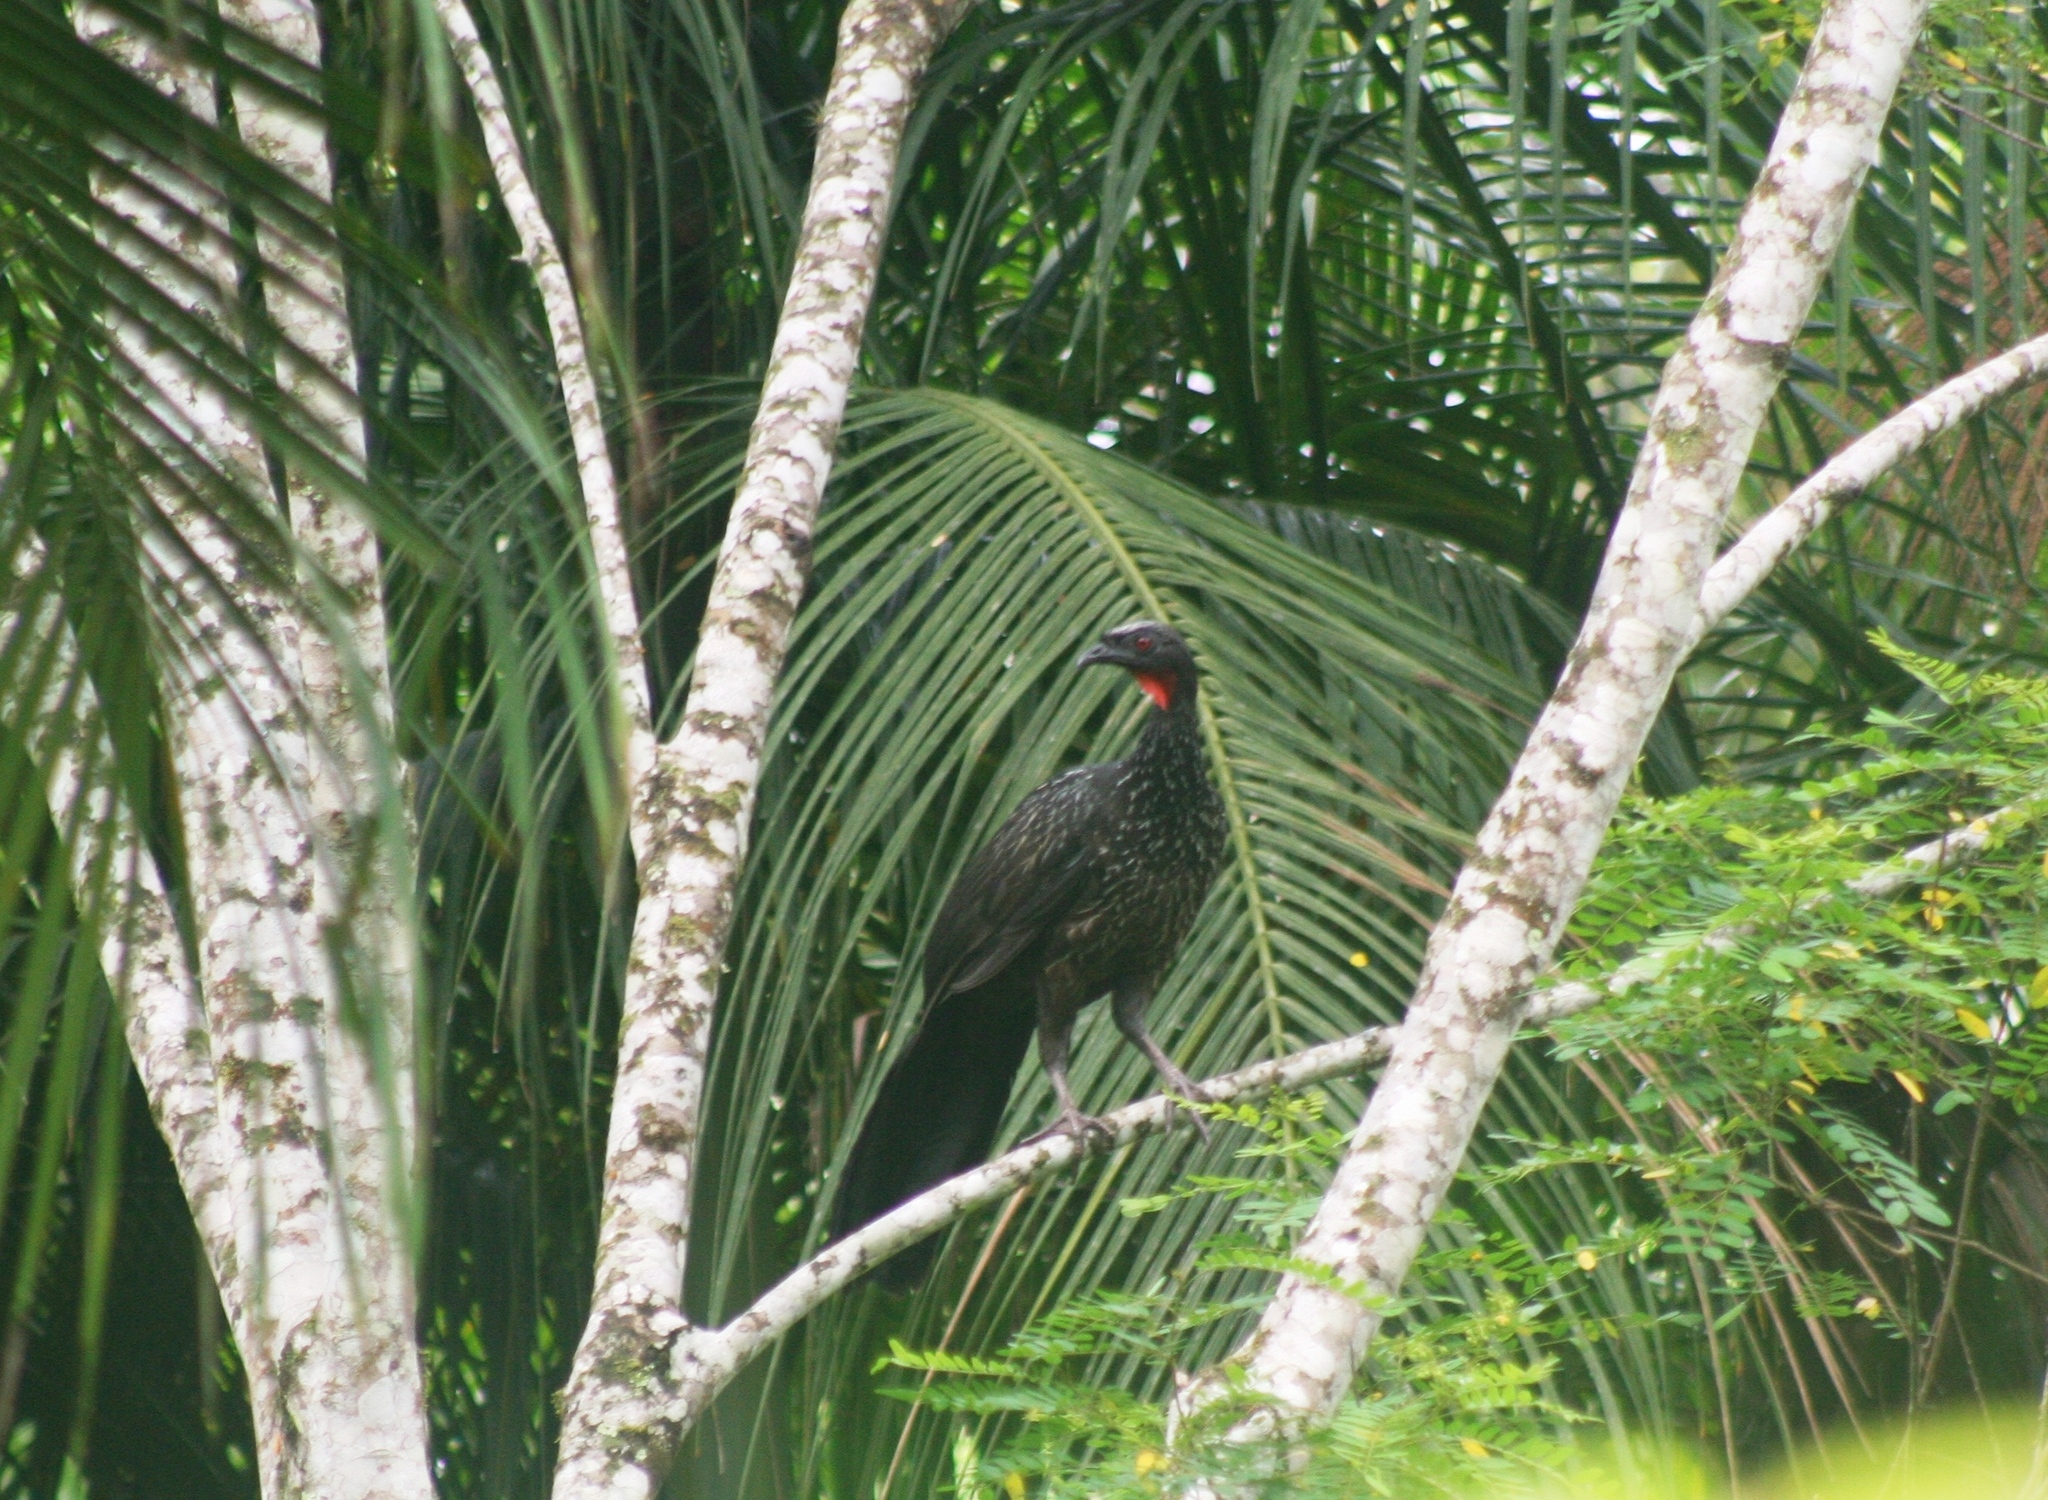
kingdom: Animalia
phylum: Chordata
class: Aves
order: Galliformes
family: Cracidae
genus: Penelope
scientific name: Penelope obscura
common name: Dusky-legged guan
